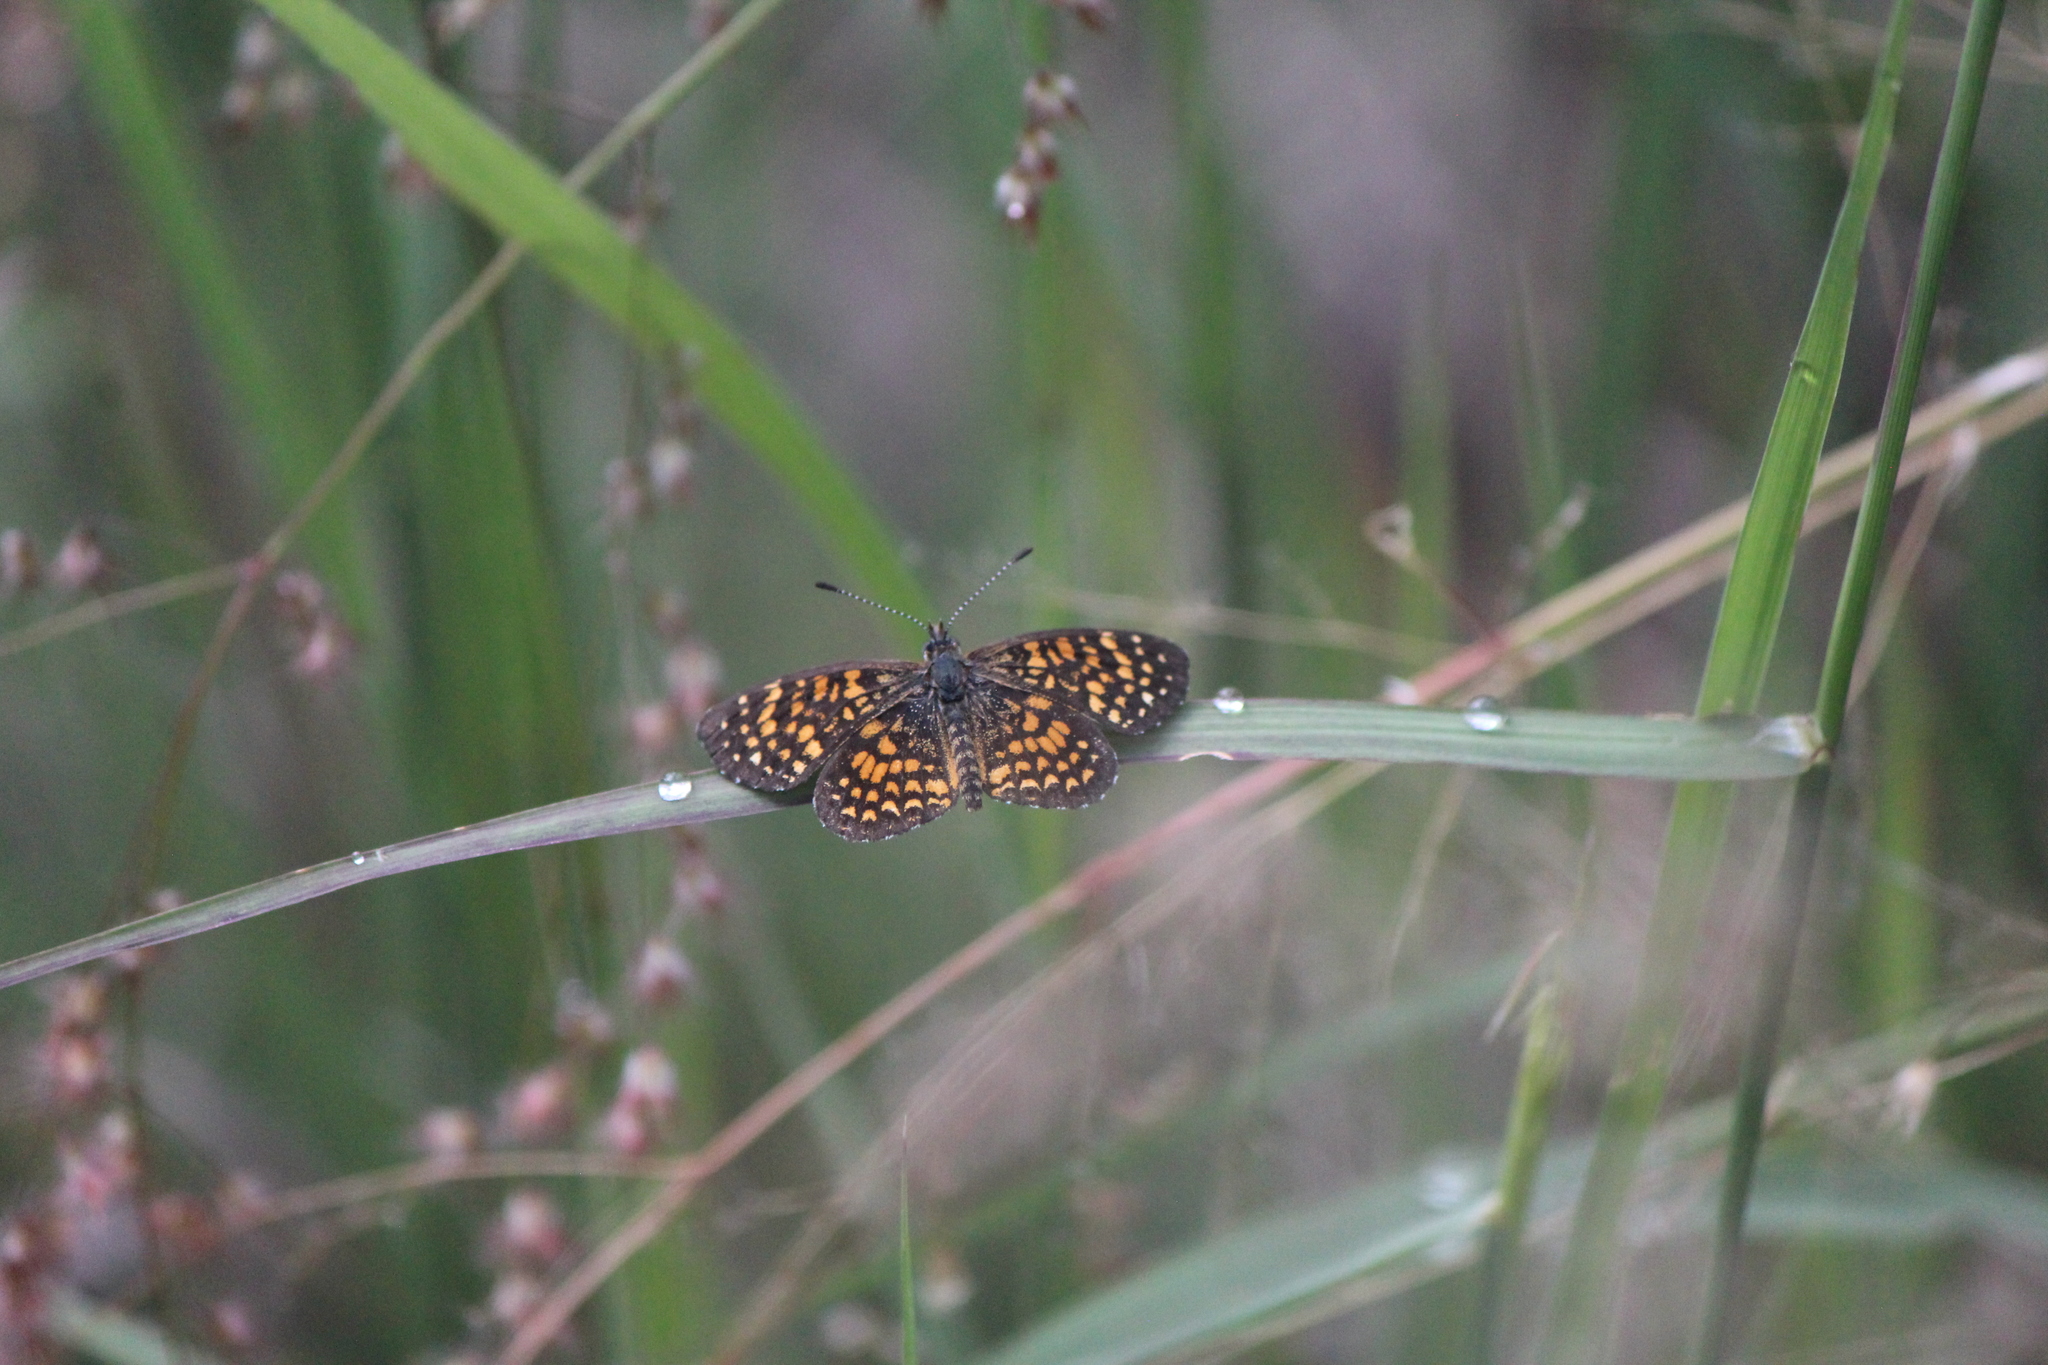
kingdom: Animalia
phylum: Arthropoda
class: Insecta
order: Lepidoptera
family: Nymphalidae
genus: Texola
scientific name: Texola elada
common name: Elada checkerspot
